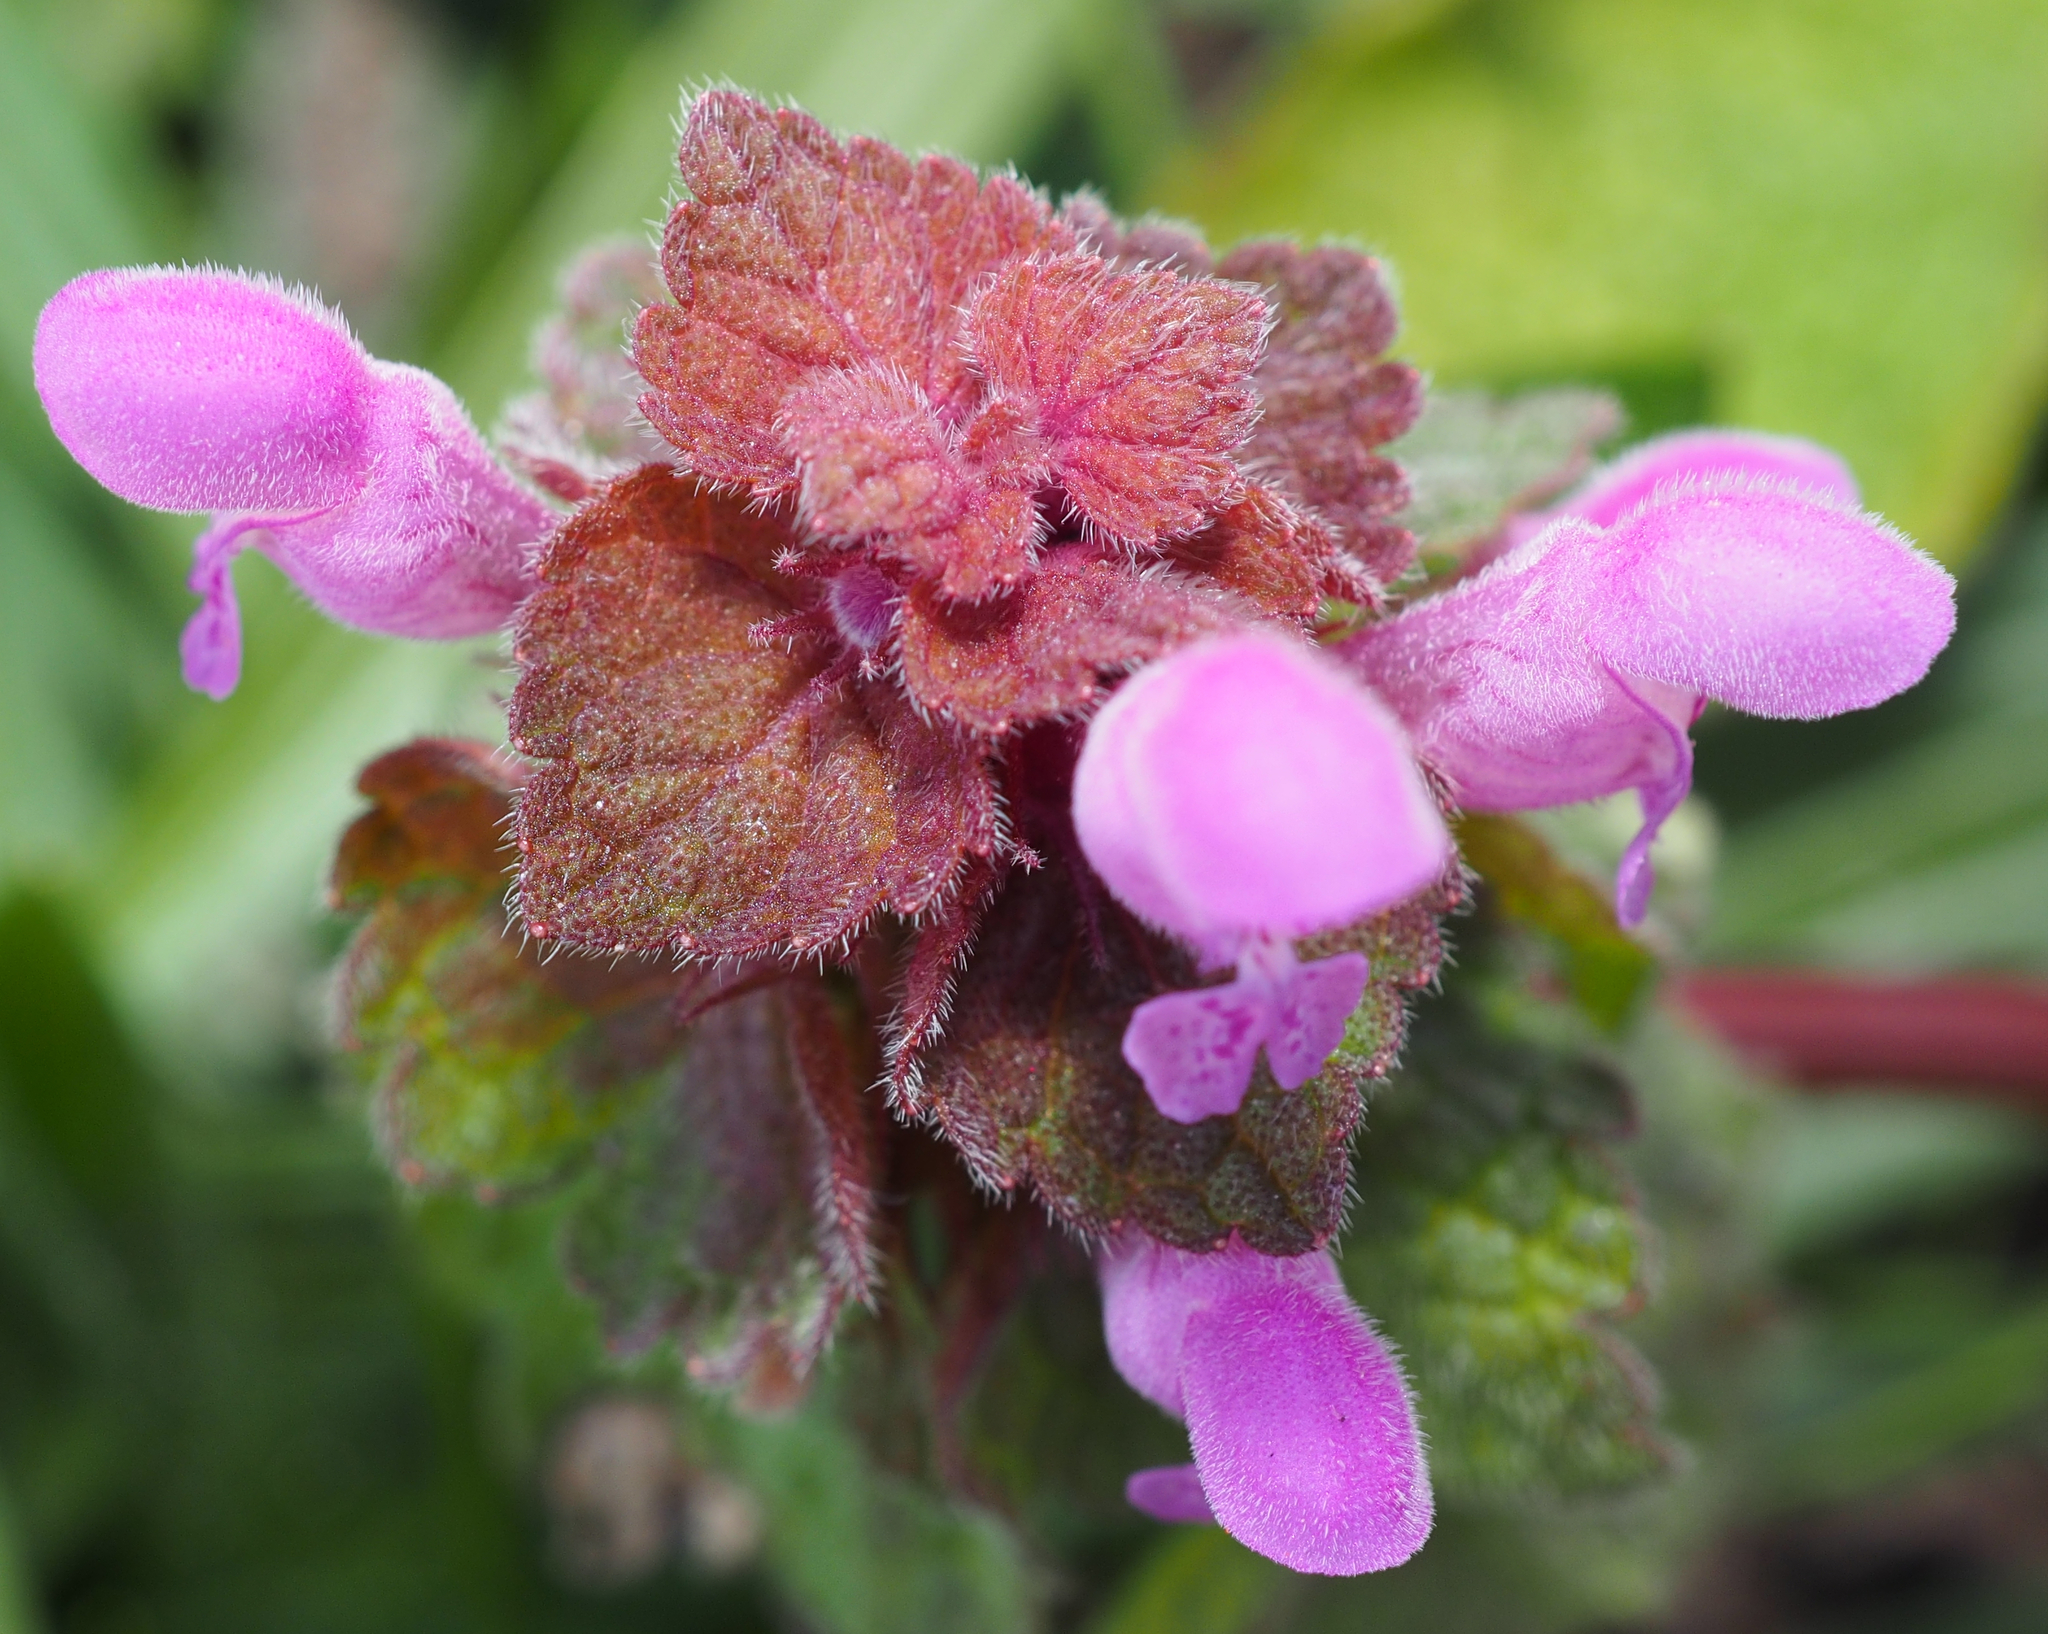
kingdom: Plantae
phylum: Tracheophyta
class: Magnoliopsida
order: Lamiales
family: Lamiaceae
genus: Lamium
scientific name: Lamium purpureum
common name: Red dead-nettle
